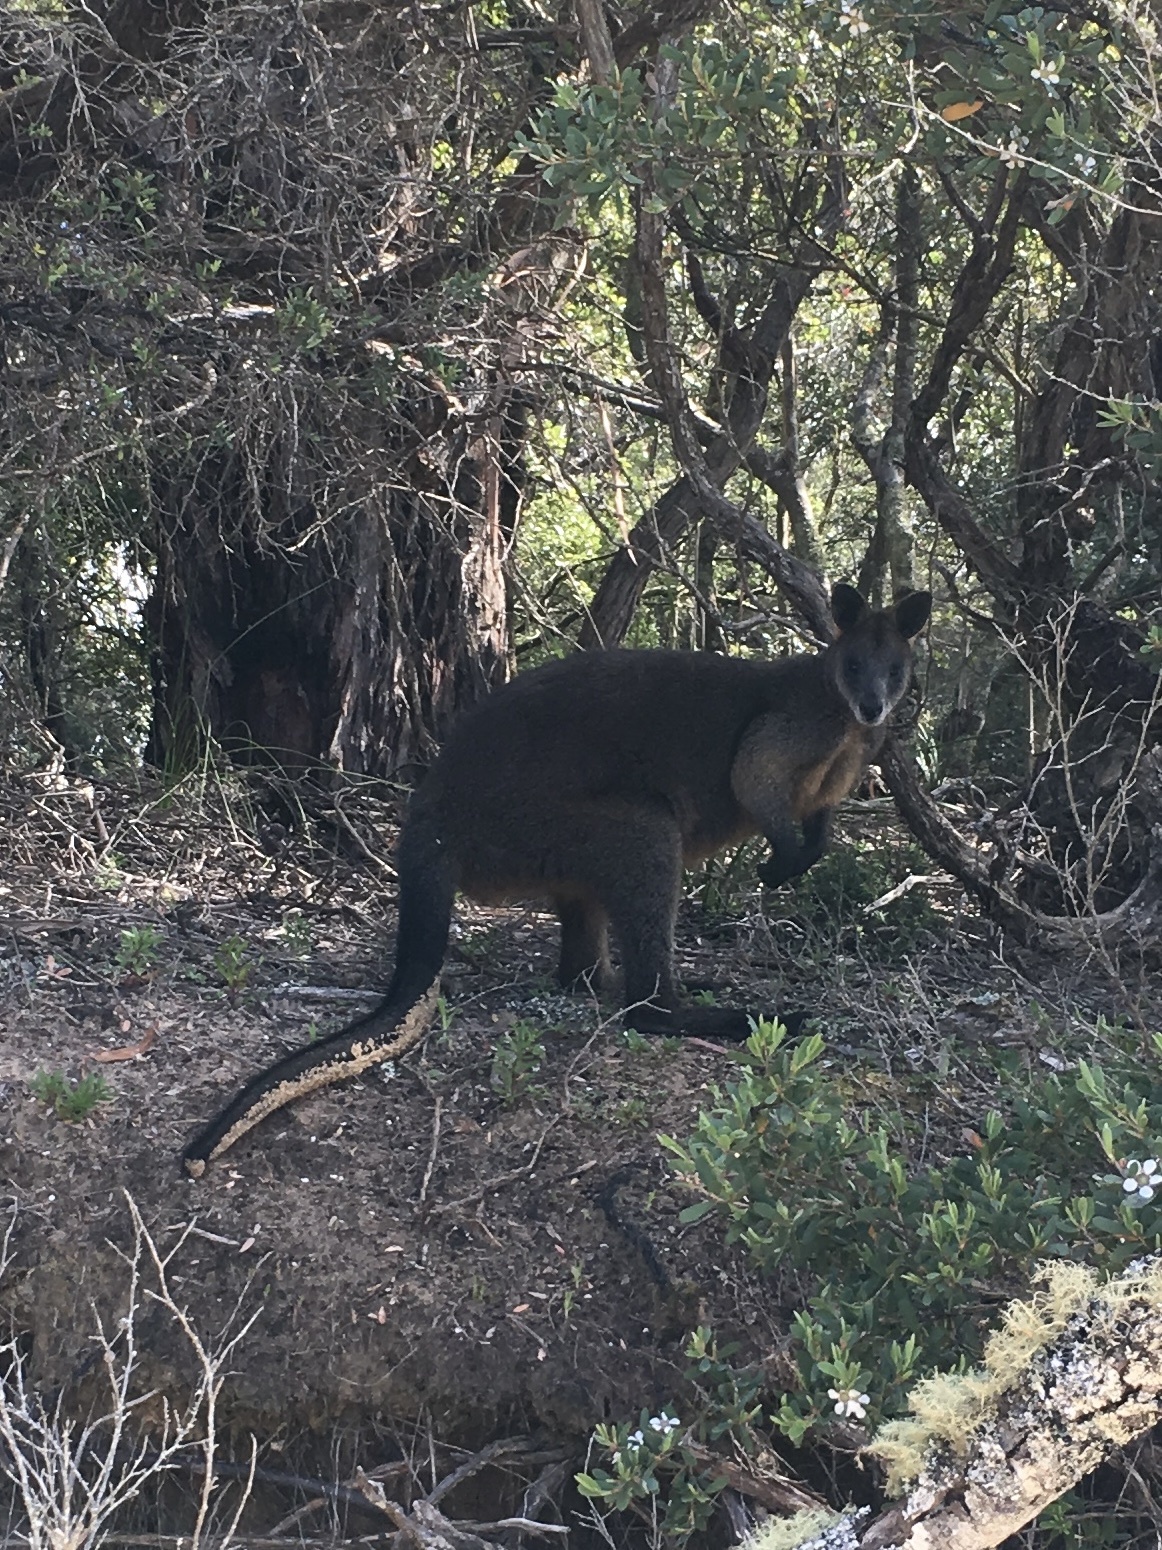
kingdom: Animalia
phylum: Chordata
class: Mammalia
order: Diprotodontia
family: Macropodidae
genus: Wallabia
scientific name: Wallabia bicolor
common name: Swamp wallaby
